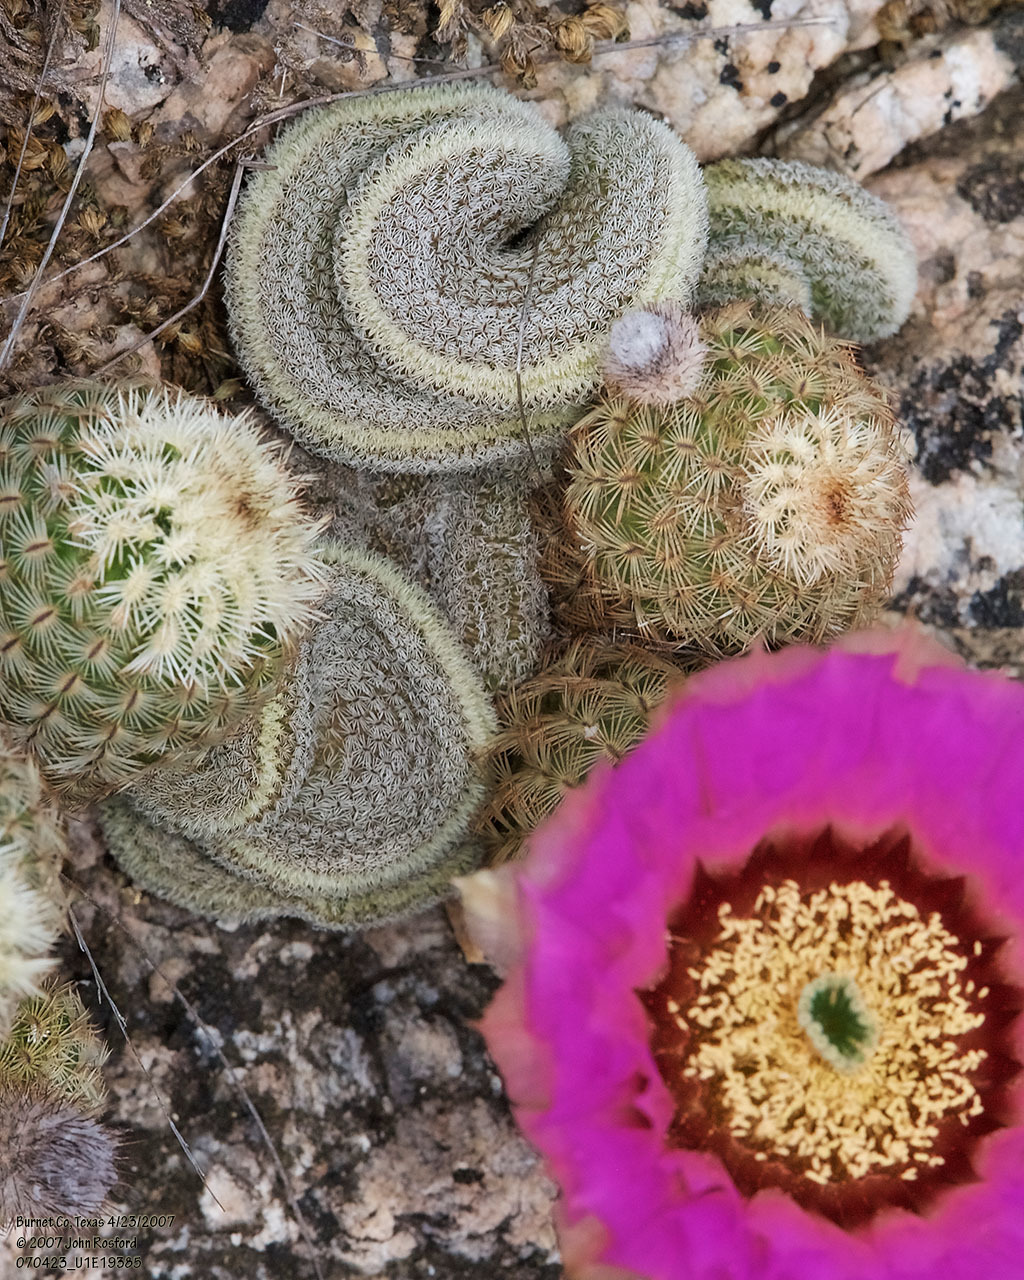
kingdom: Plantae
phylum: Tracheophyta
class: Magnoliopsida
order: Caryophyllales
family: Cactaceae
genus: Echinocereus
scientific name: Echinocereus reichenbachii
